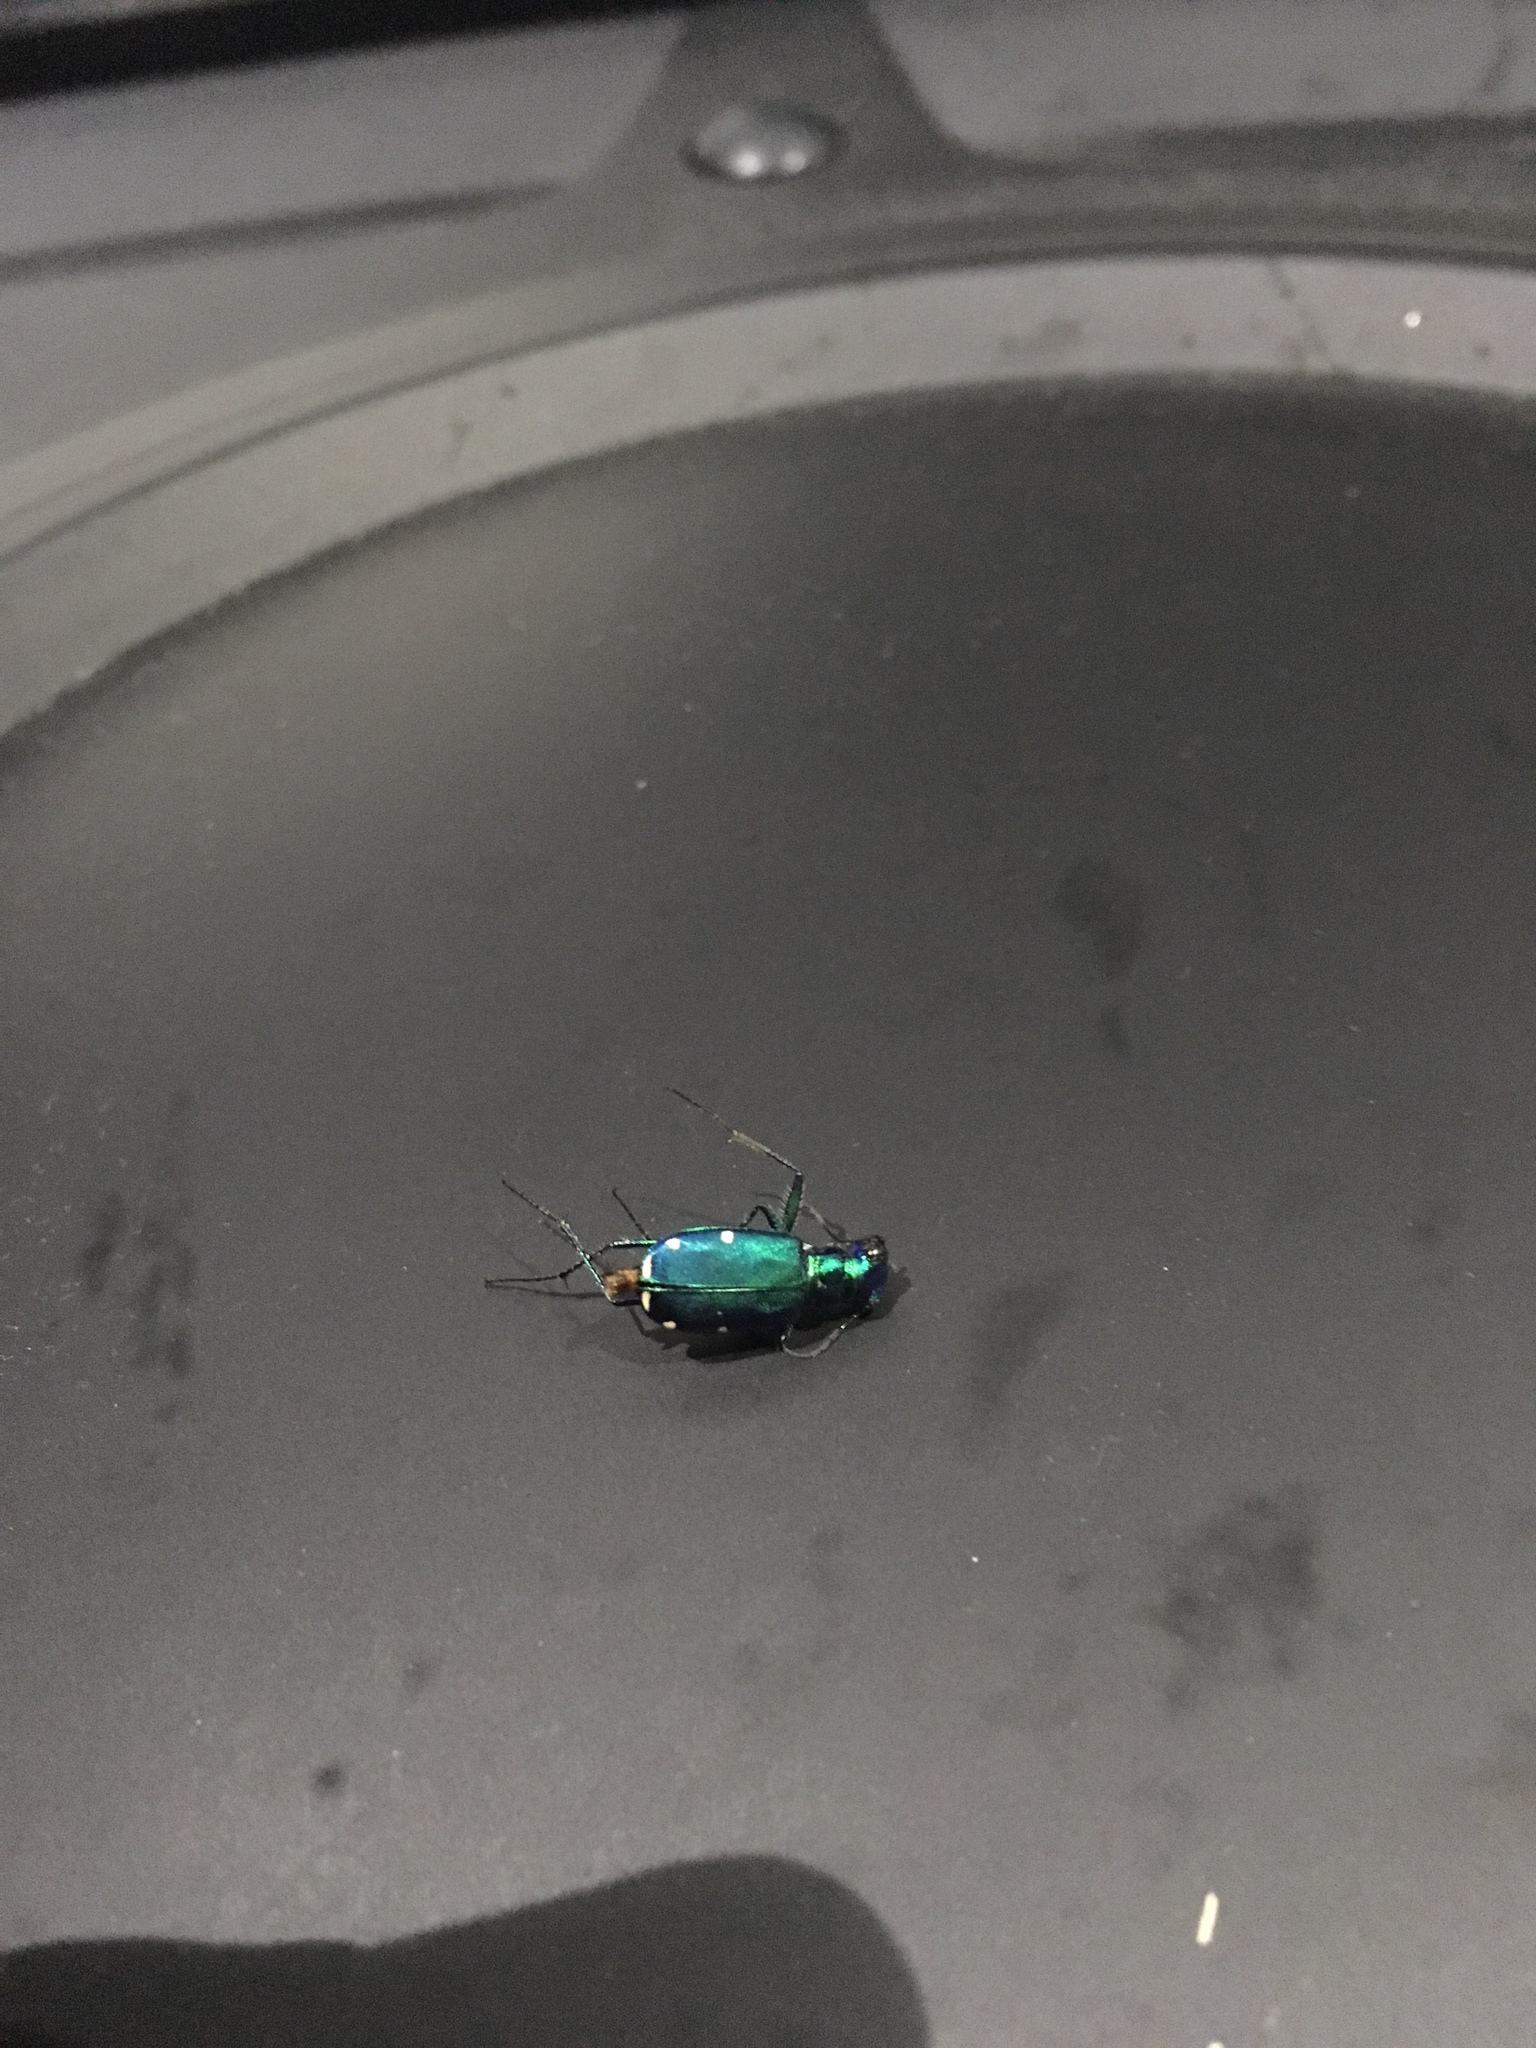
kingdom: Animalia
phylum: Arthropoda
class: Insecta
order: Coleoptera
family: Carabidae
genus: Cicindela
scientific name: Cicindela sexguttata
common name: Six-spotted tiger beetle
